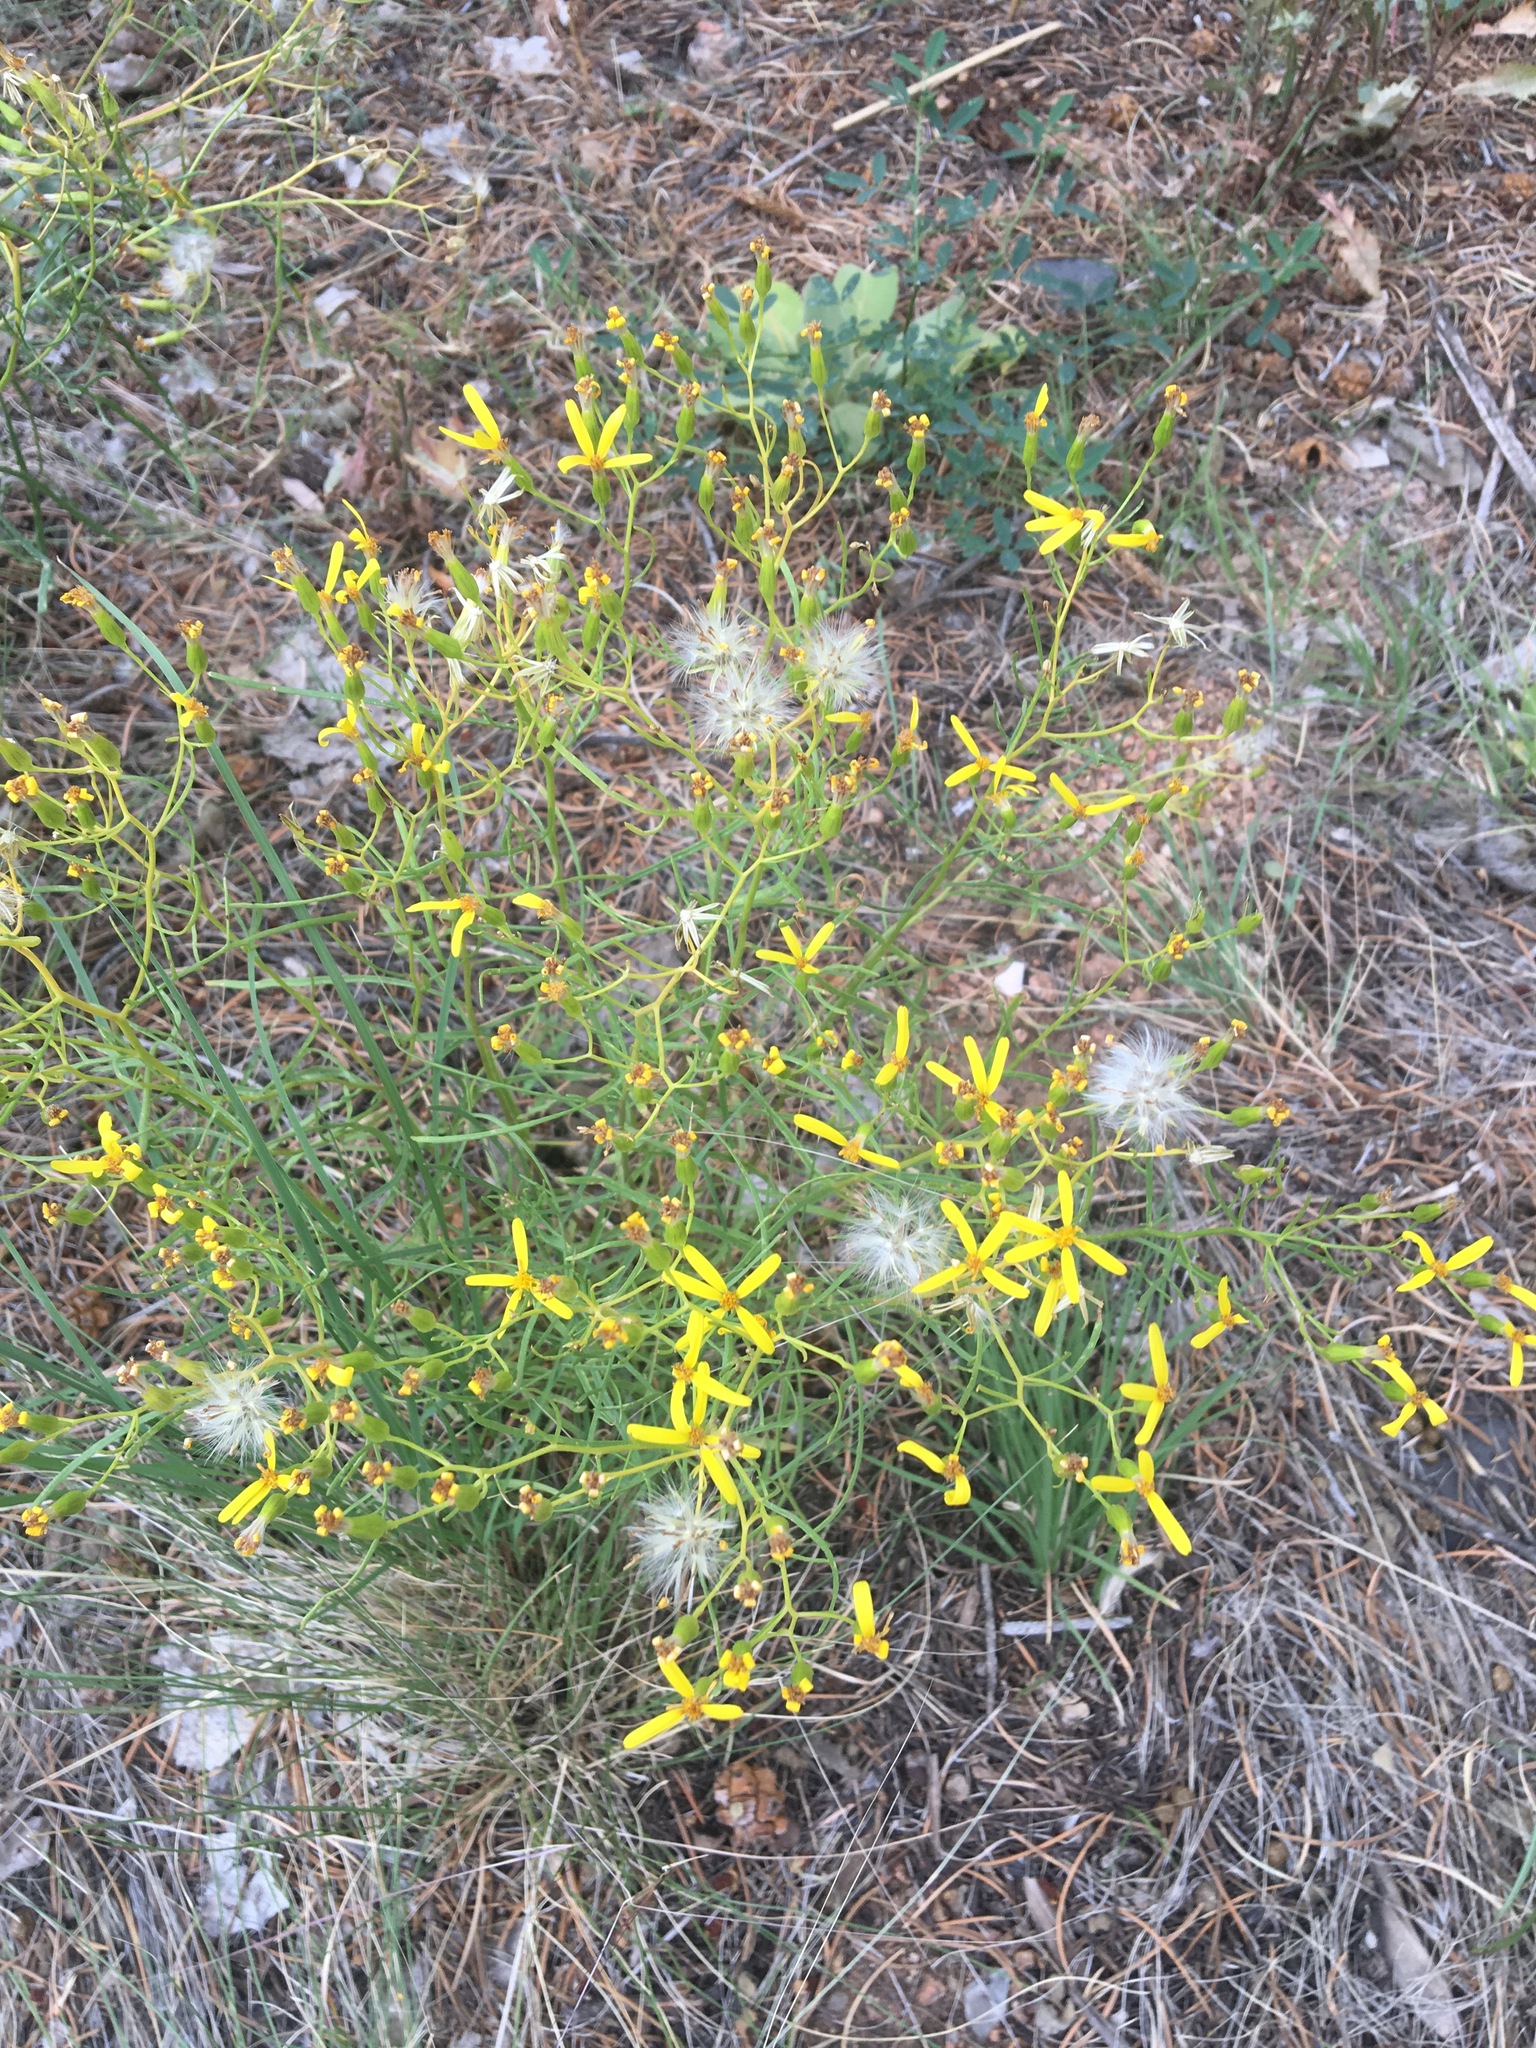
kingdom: Plantae
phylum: Tracheophyta
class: Magnoliopsida
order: Asterales
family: Asteraceae
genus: Senecio
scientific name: Senecio spartioides
